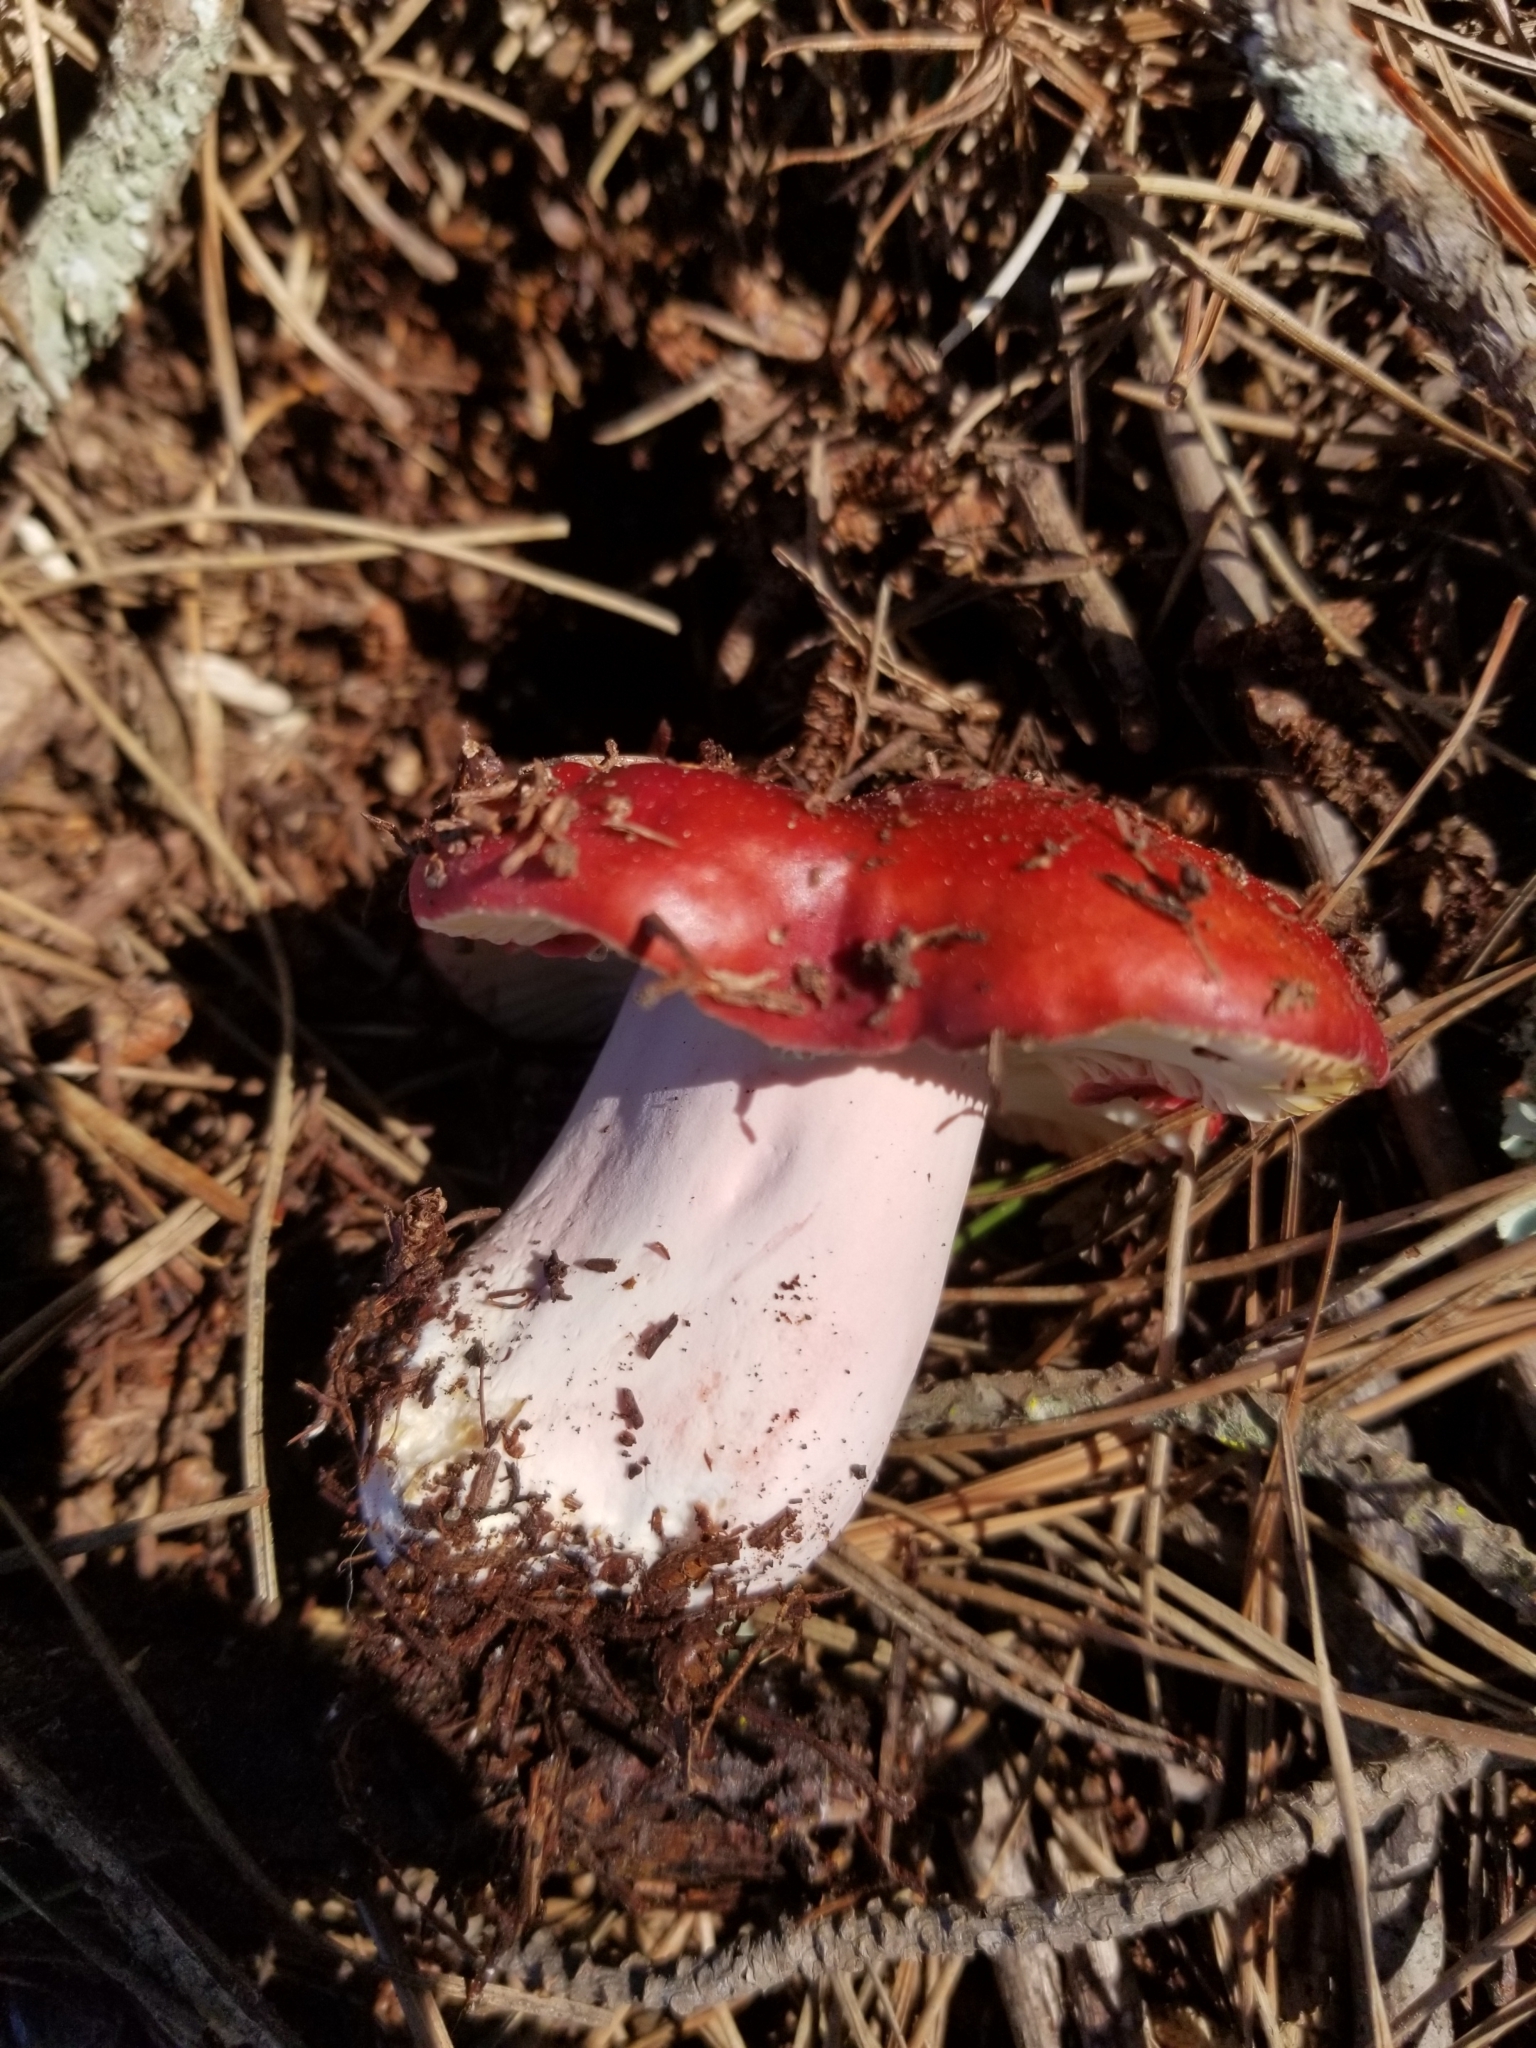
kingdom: Fungi
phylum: Basidiomycota
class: Agaricomycetes
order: Russulales
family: Russulaceae
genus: Russula
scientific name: Russula rhodocephala
